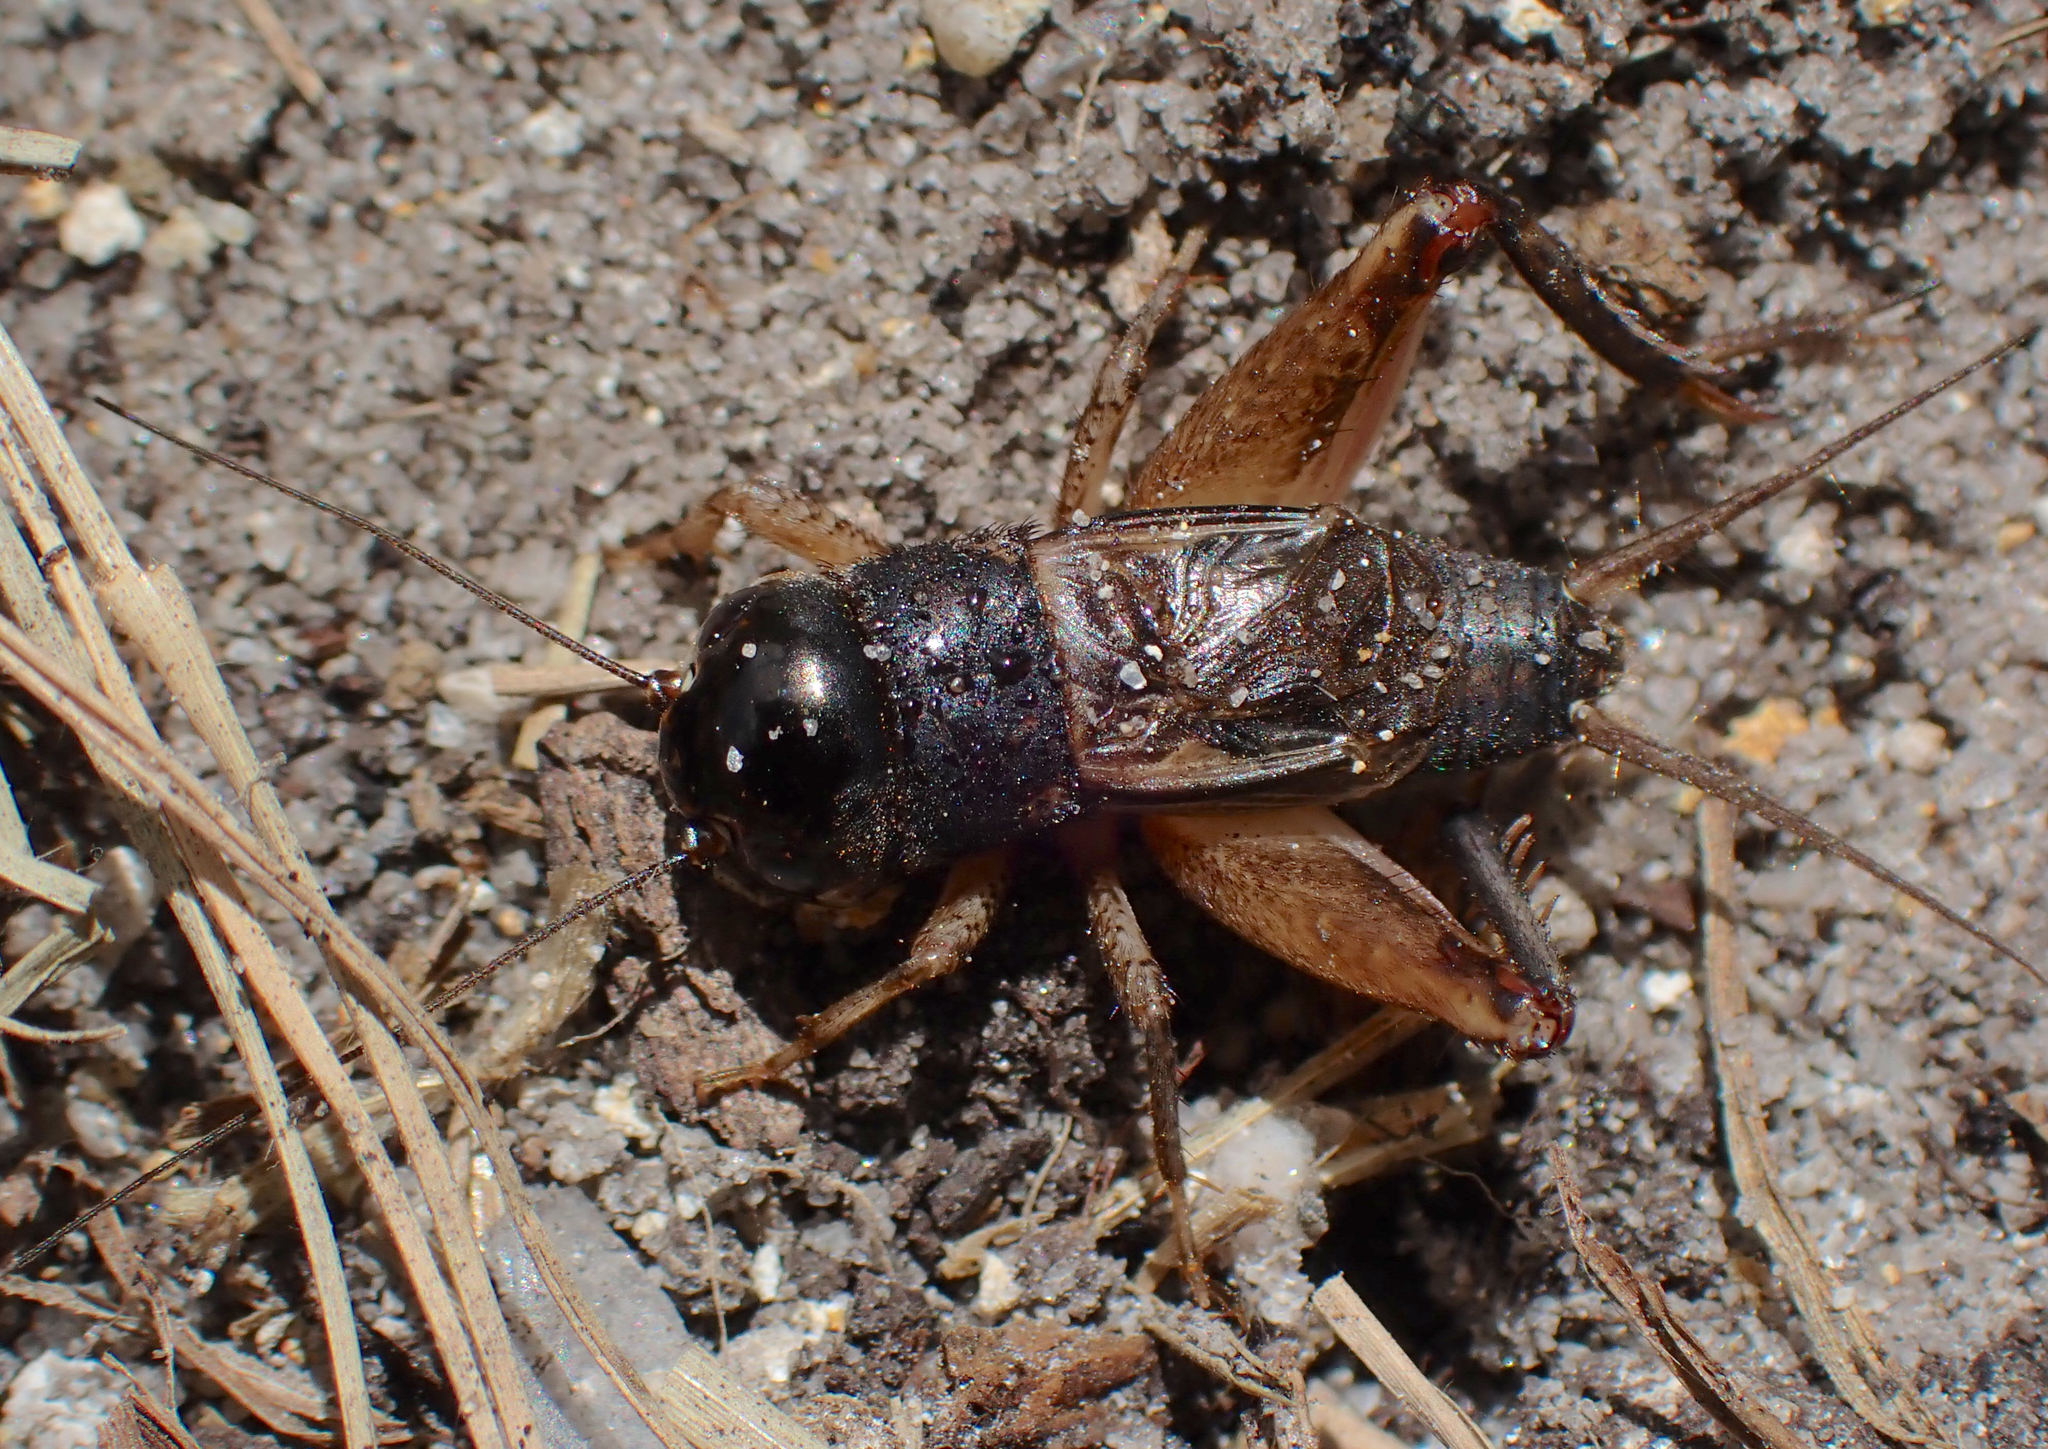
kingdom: Animalia
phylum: Arthropoda
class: Insecta
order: Orthoptera
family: Gryllidae
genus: Miogryllus
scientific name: Miogryllus verticalis
